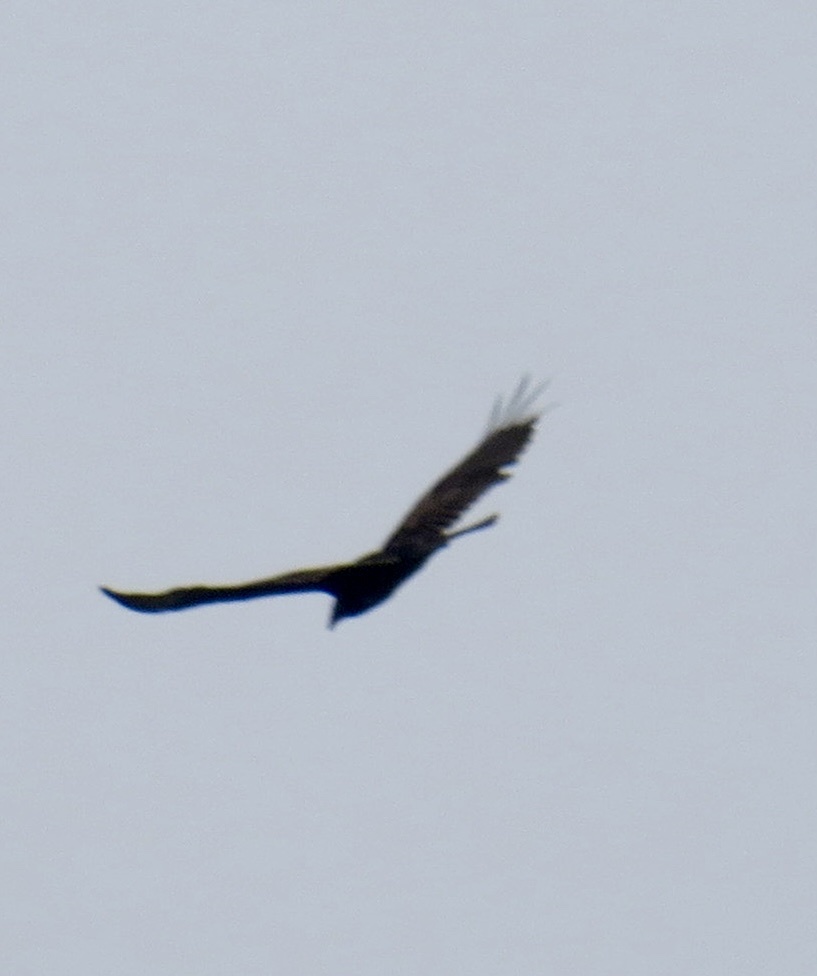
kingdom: Animalia
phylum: Chordata
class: Aves
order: Accipitriformes
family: Cathartidae
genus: Cathartes
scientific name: Cathartes aura
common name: Turkey vulture
